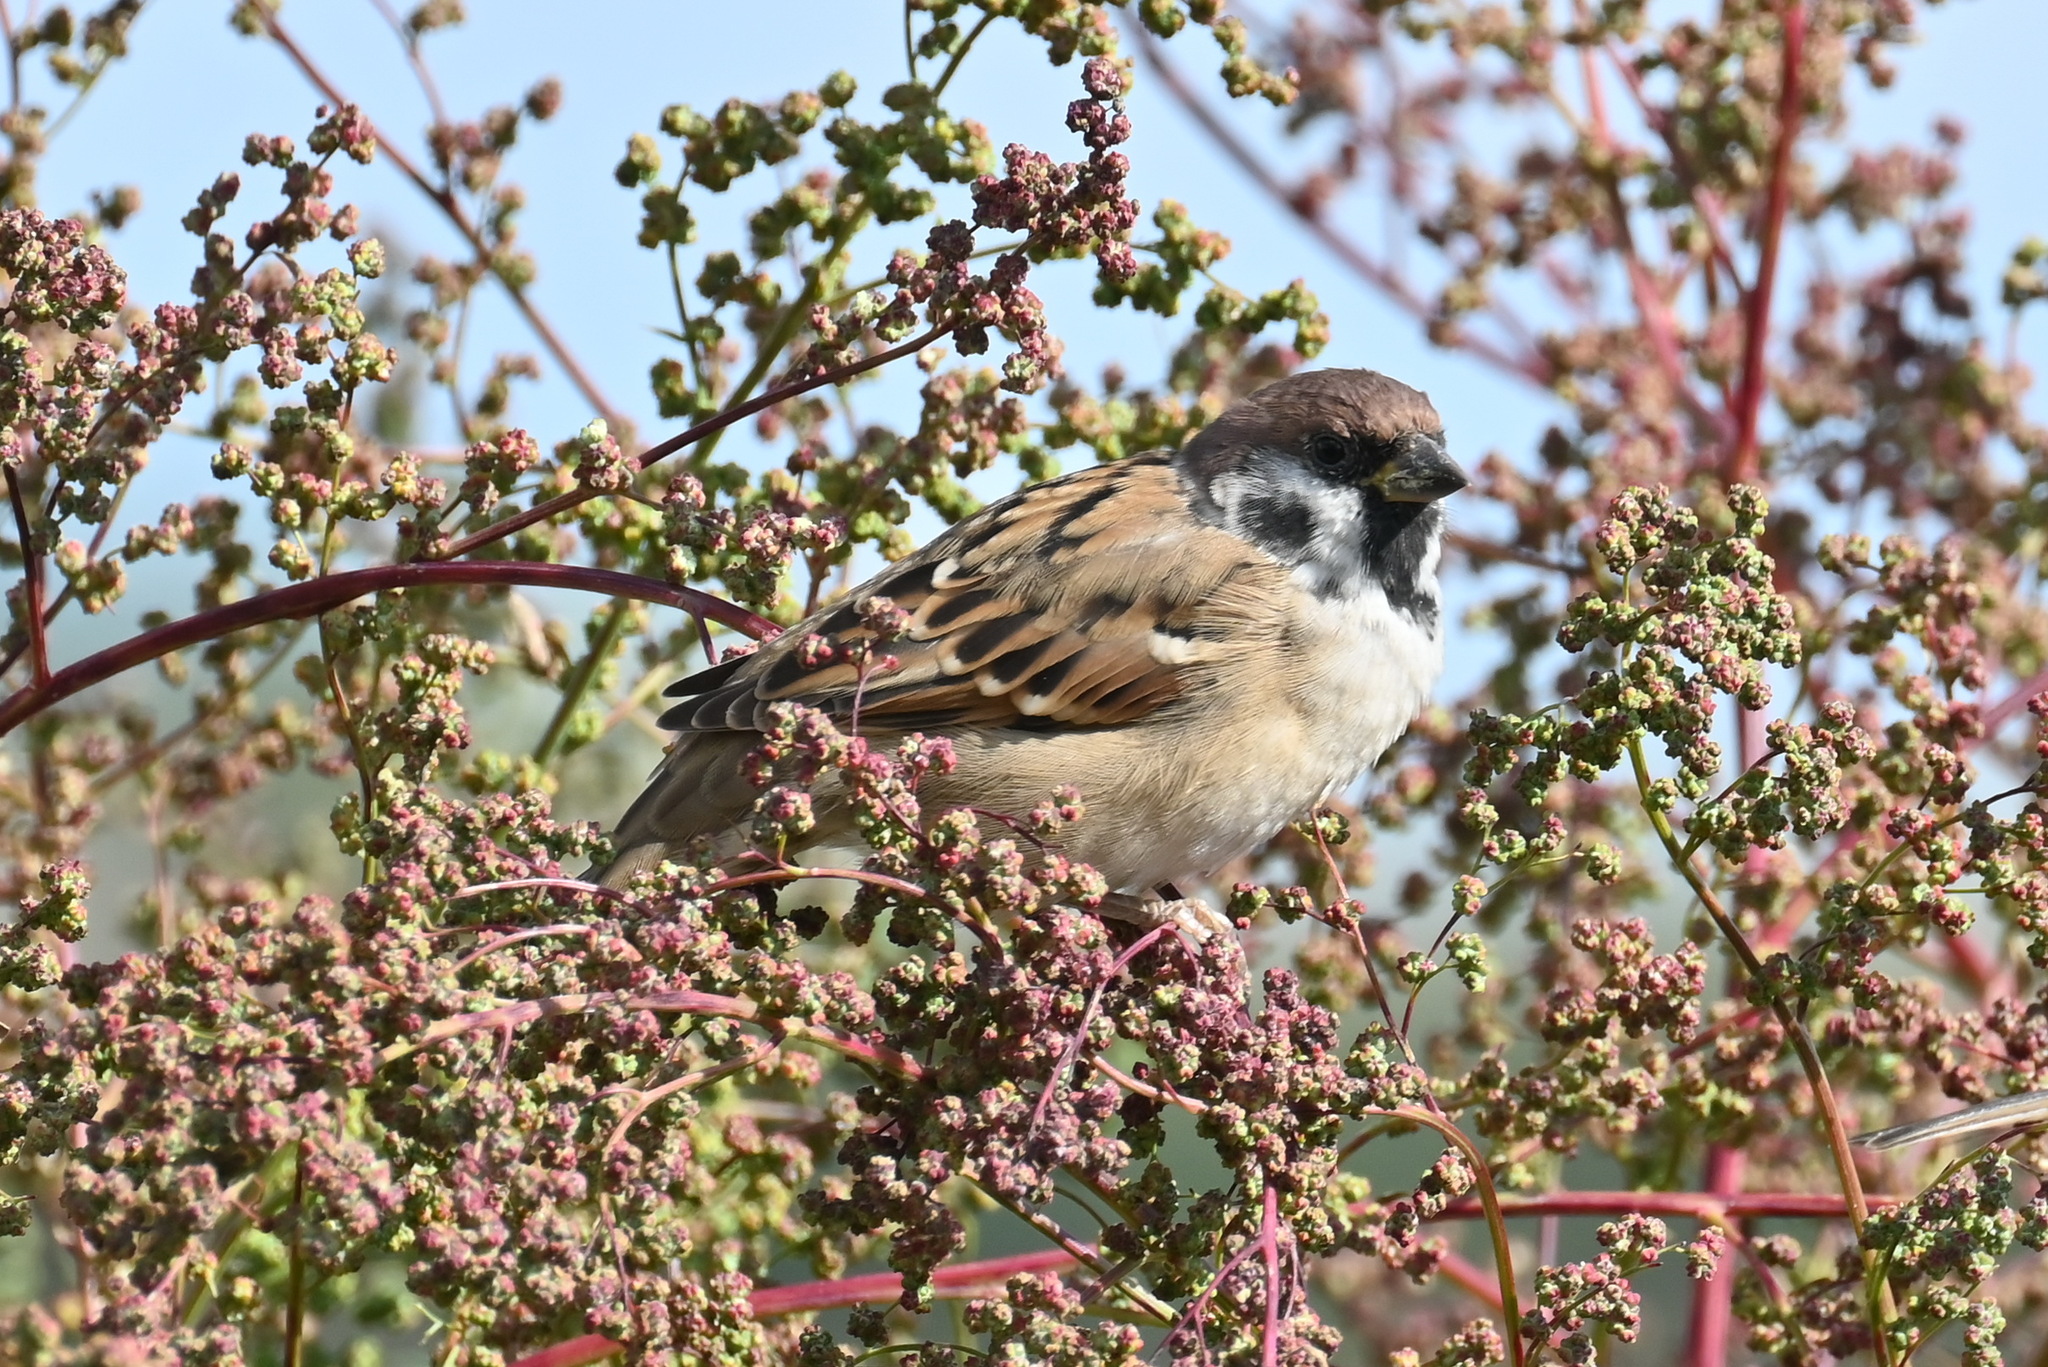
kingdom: Animalia
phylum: Chordata
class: Aves
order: Passeriformes
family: Passeridae
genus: Passer
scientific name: Passer montanus
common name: Eurasian tree sparrow
